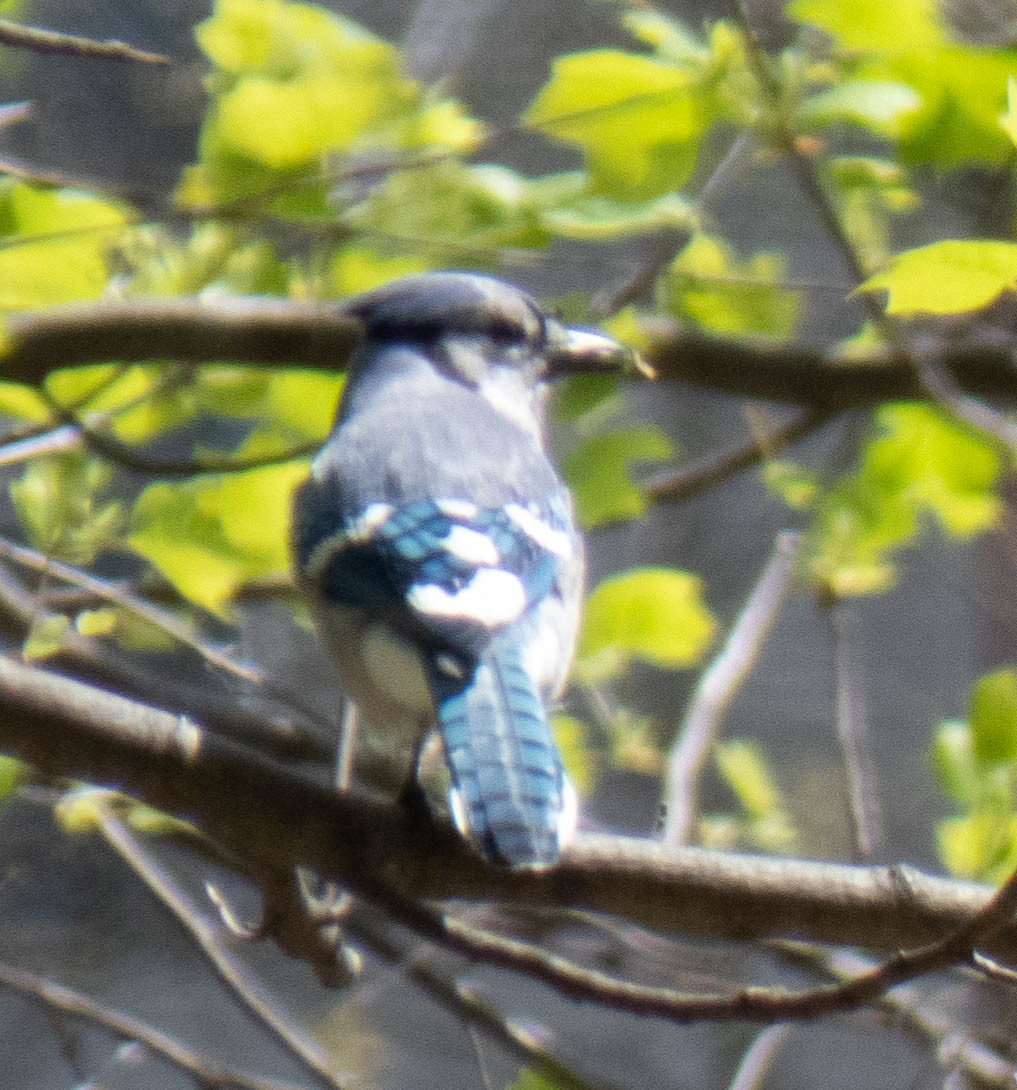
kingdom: Animalia
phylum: Chordata
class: Aves
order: Passeriformes
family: Corvidae
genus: Cyanocitta
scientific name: Cyanocitta cristata
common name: Blue jay
